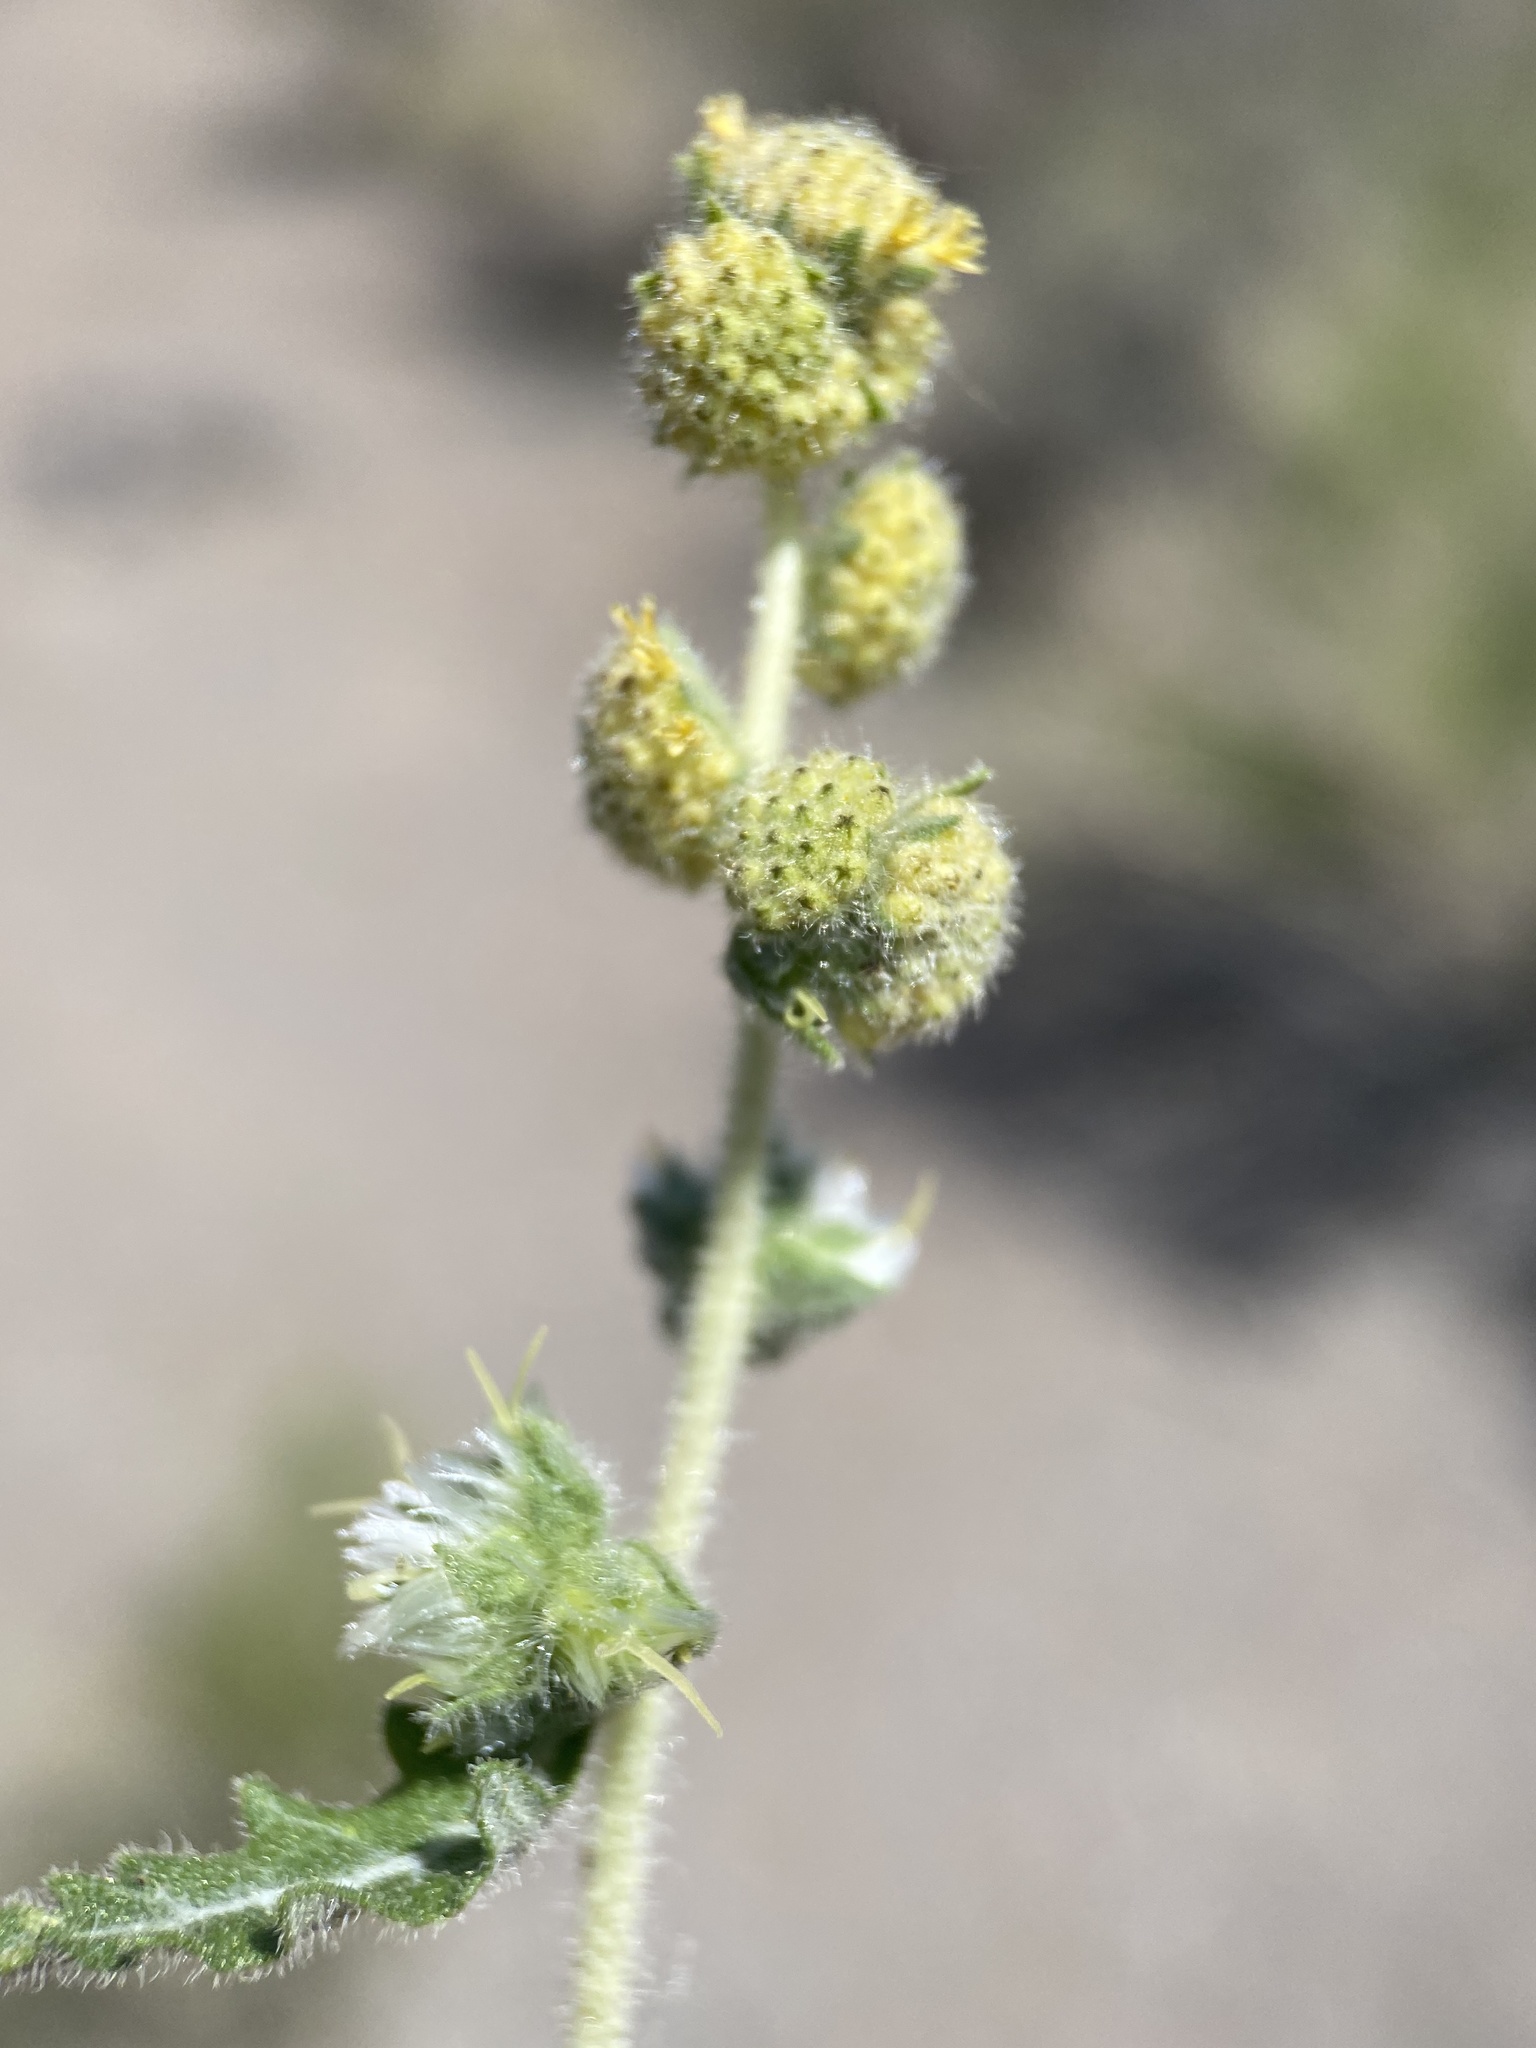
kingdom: Plantae
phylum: Tracheophyta
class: Magnoliopsida
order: Asterales
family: Asteraceae
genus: Ambrosia
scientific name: Ambrosia eriocentra
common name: Woolly bur-sage
